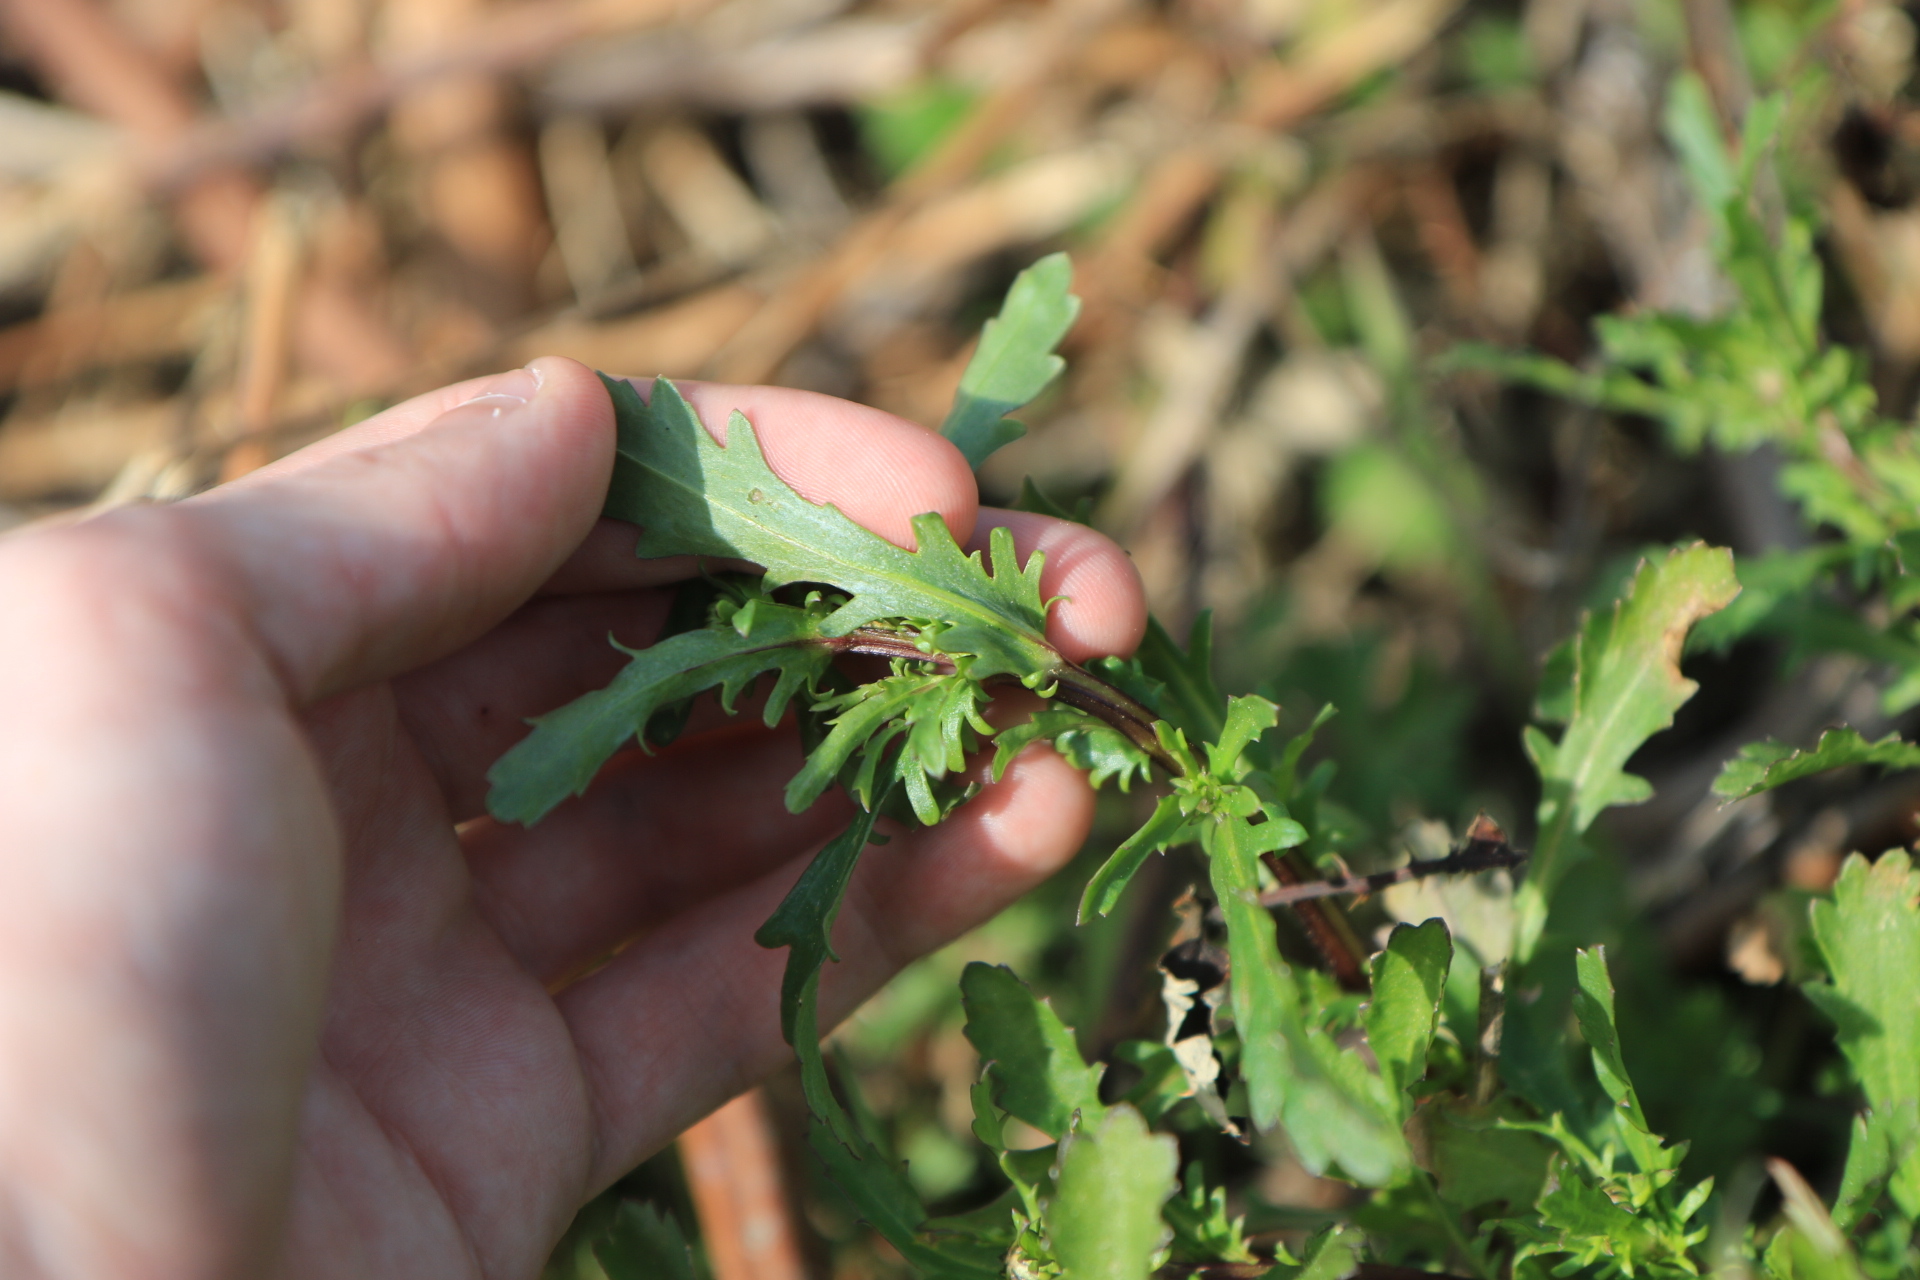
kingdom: Plantae
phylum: Tracheophyta
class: Magnoliopsida
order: Asterales
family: Asteraceae
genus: Leucanthemum
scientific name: Leucanthemum vulgare
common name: Oxeye daisy
